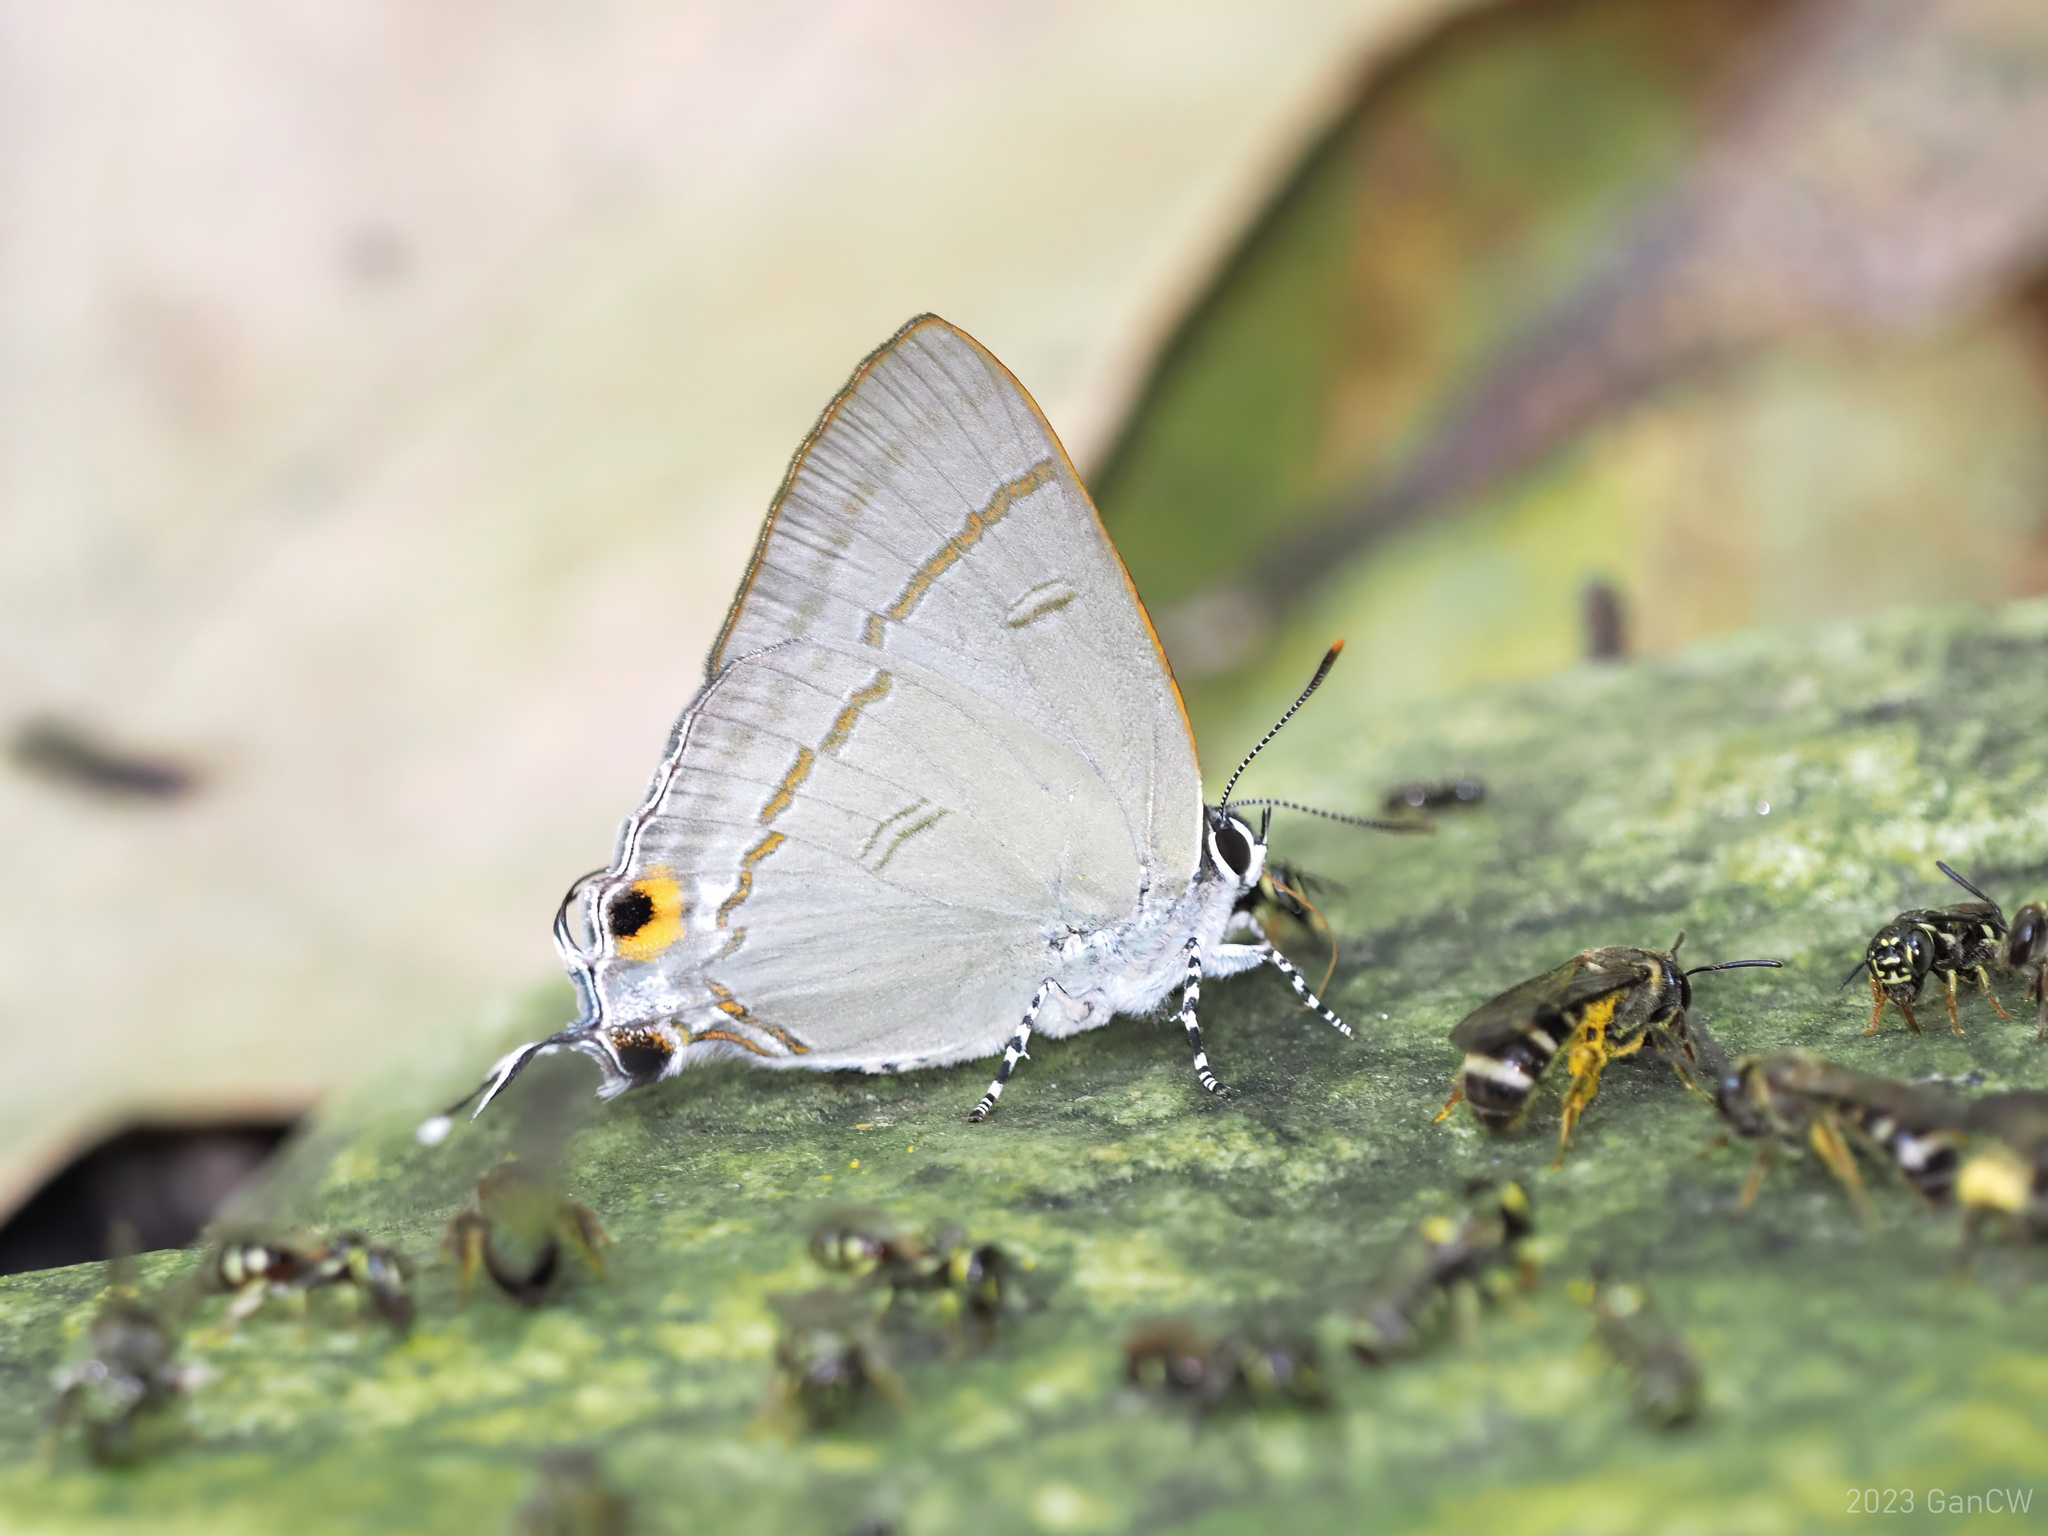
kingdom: Animalia
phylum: Arthropoda
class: Insecta
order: Lepidoptera
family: Lycaenidae
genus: Hypolycaena
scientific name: Hypolycaena erylus
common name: Common tit
